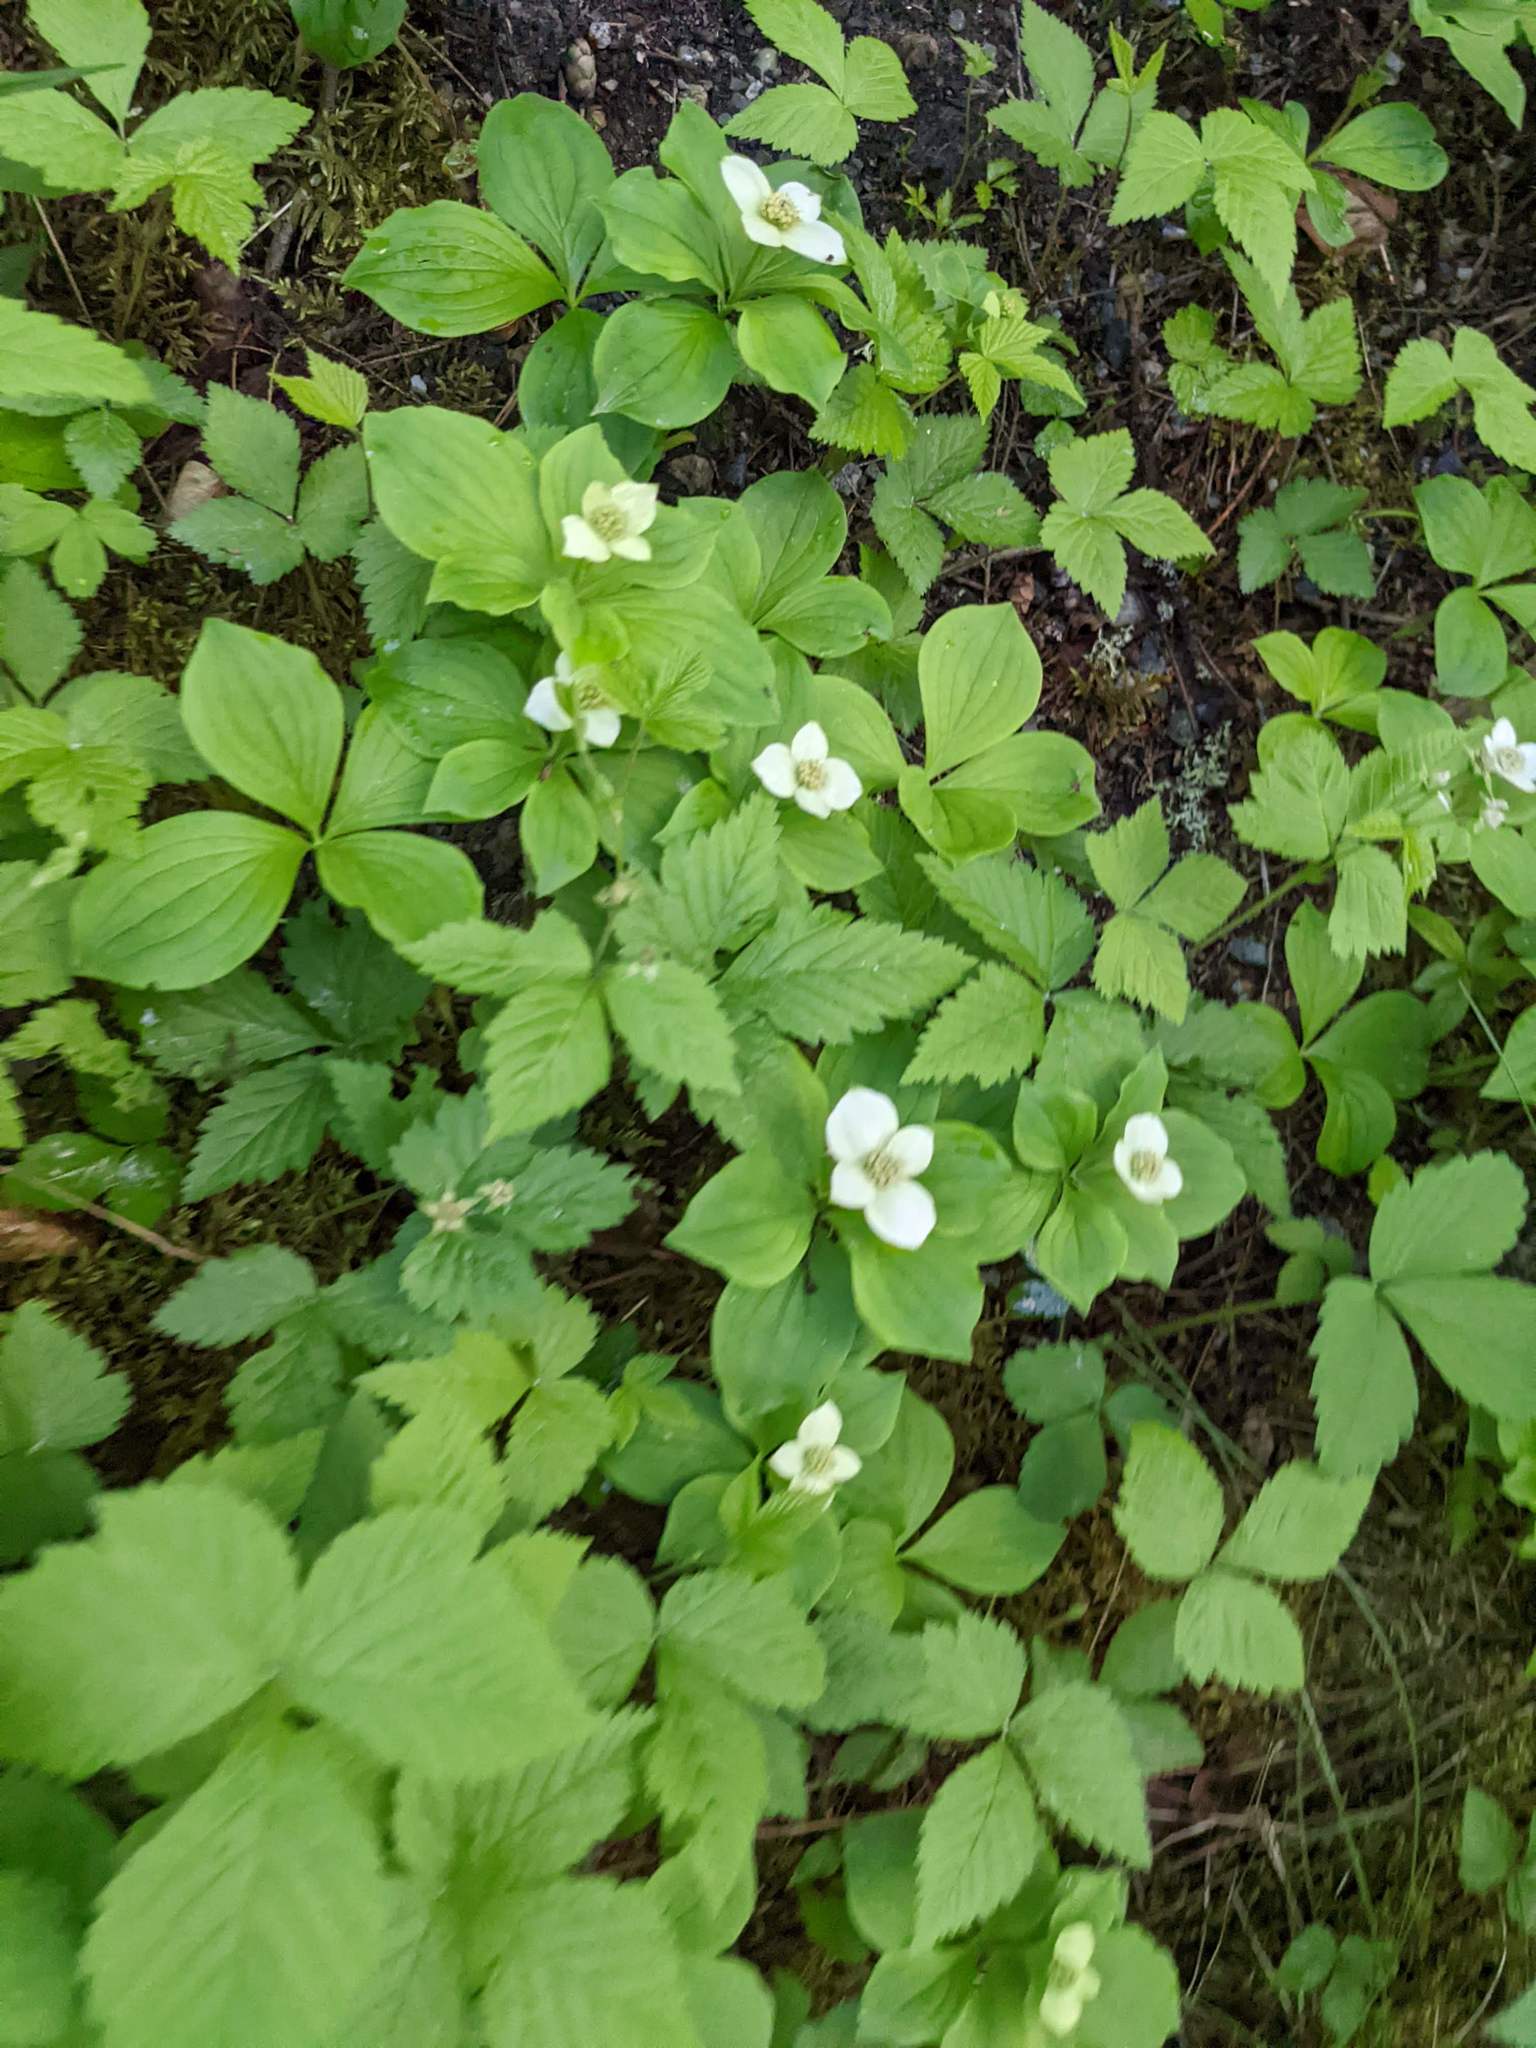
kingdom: Plantae
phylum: Tracheophyta
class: Magnoliopsida
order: Cornales
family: Cornaceae
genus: Cornus
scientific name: Cornus canadensis
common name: Creeping dogwood
